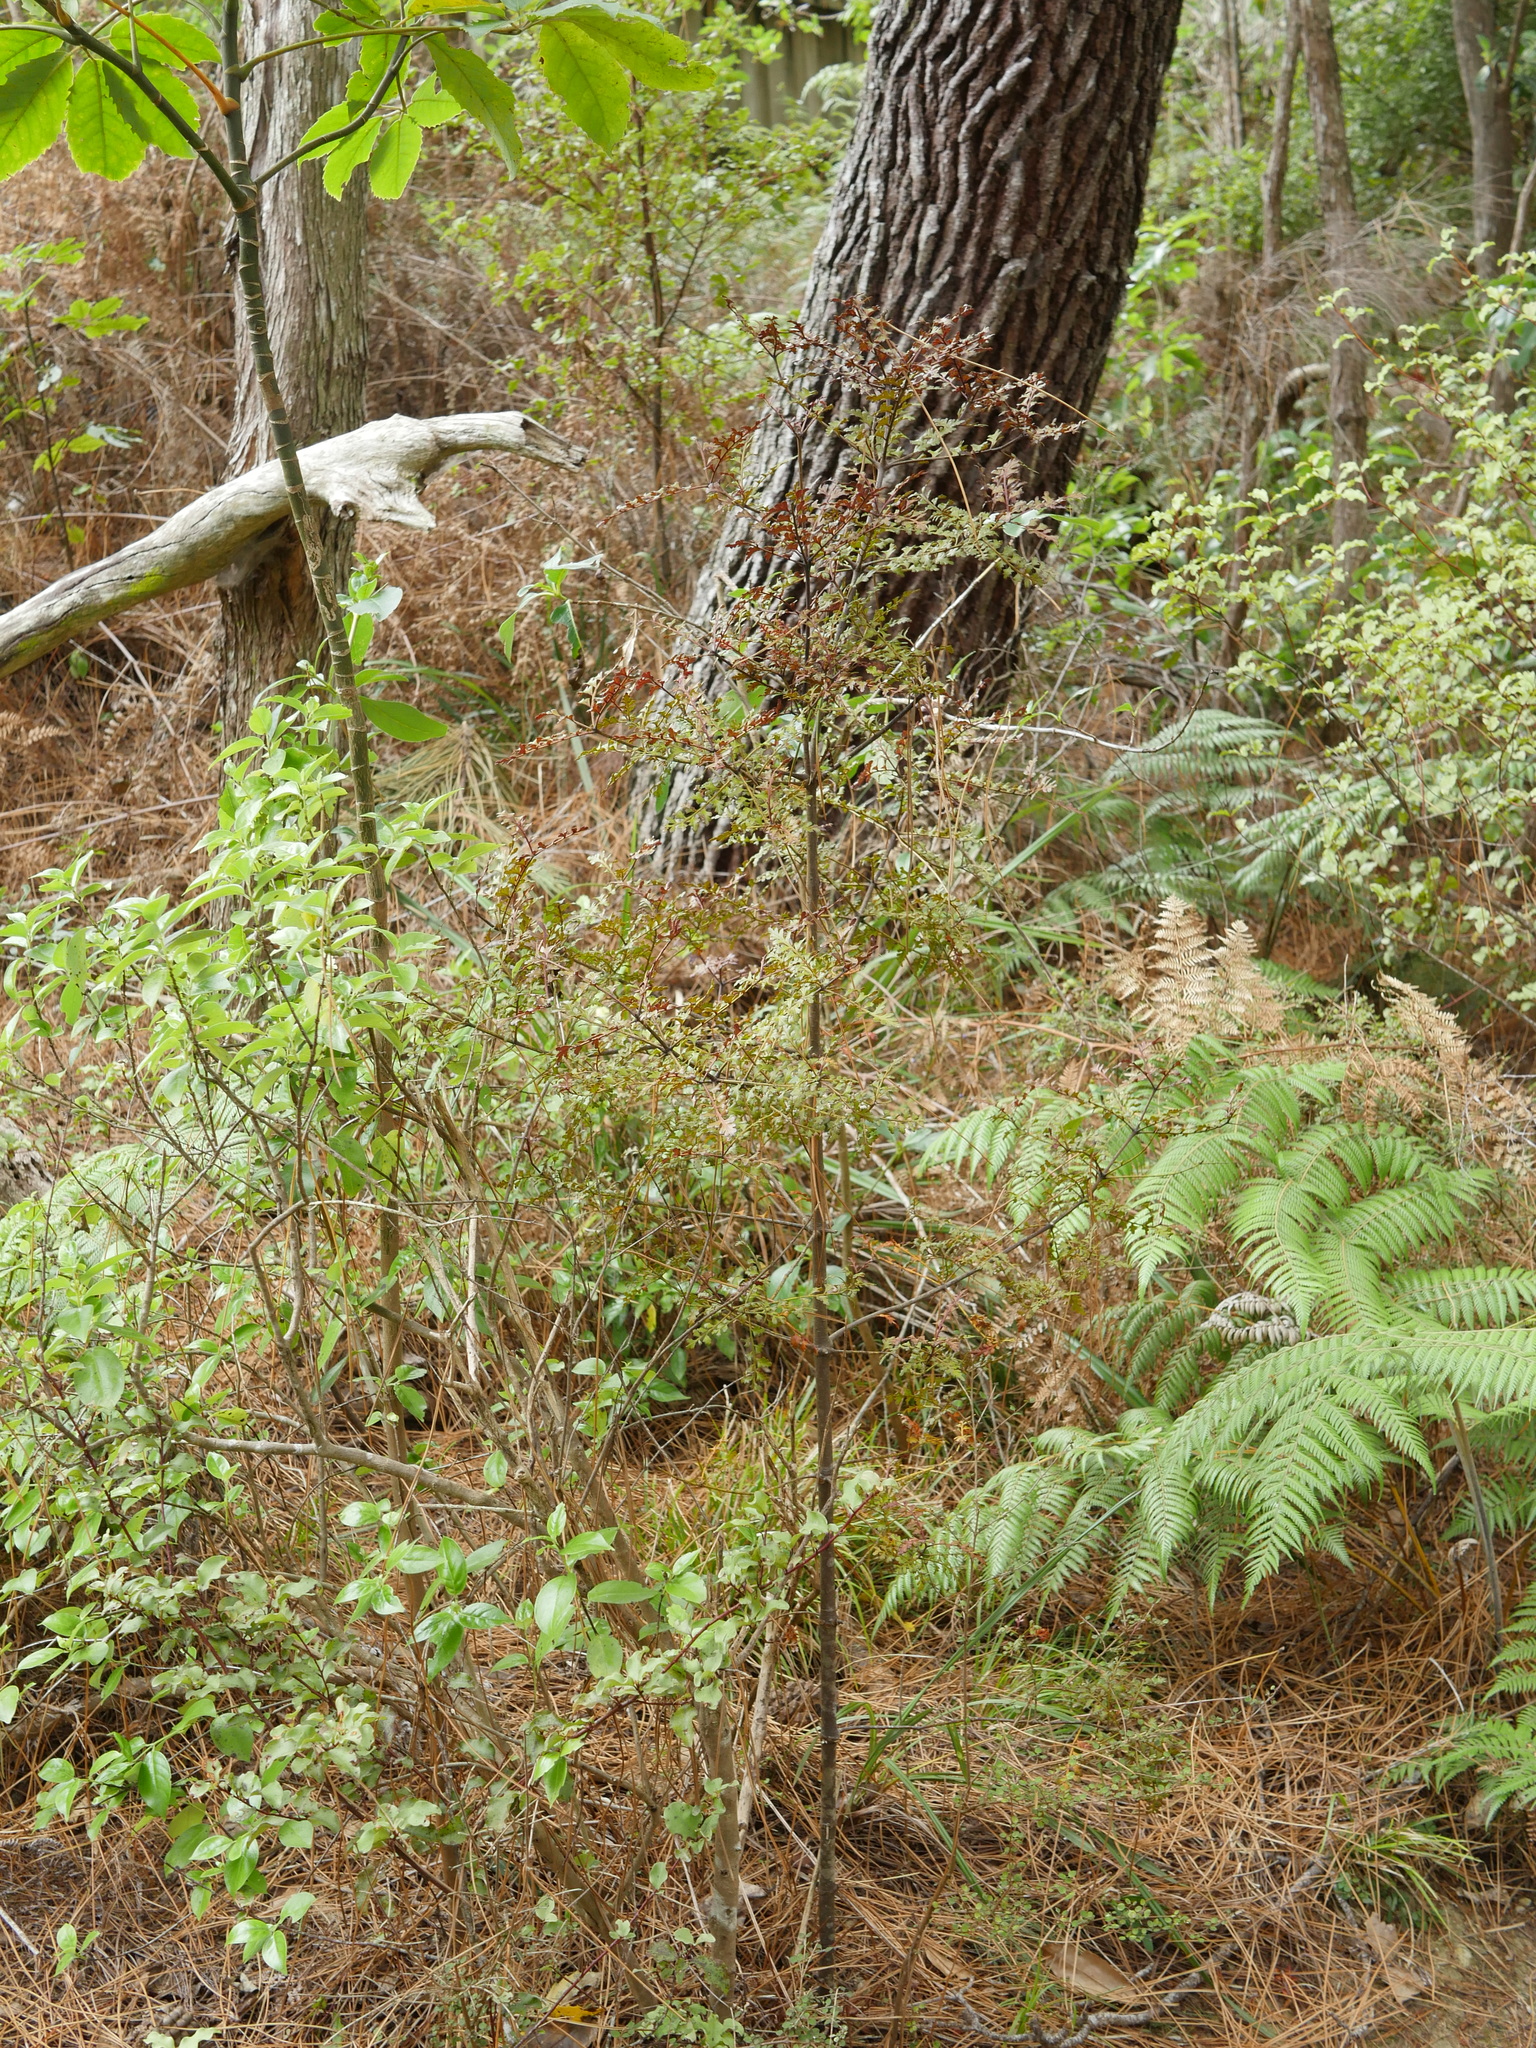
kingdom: Plantae
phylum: Tracheophyta
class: Pinopsida
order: Pinales
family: Phyllocladaceae
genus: Phyllocladus
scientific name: Phyllocladus trichomanoides
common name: Celery pine
